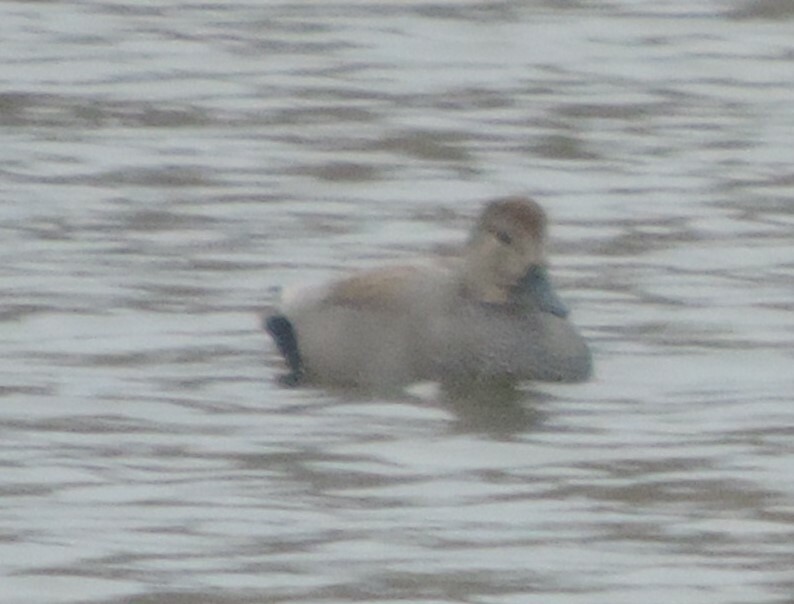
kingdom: Animalia
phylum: Chordata
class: Aves
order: Anseriformes
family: Anatidae
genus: Mareca
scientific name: Mareca strepera
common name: Gadwall
